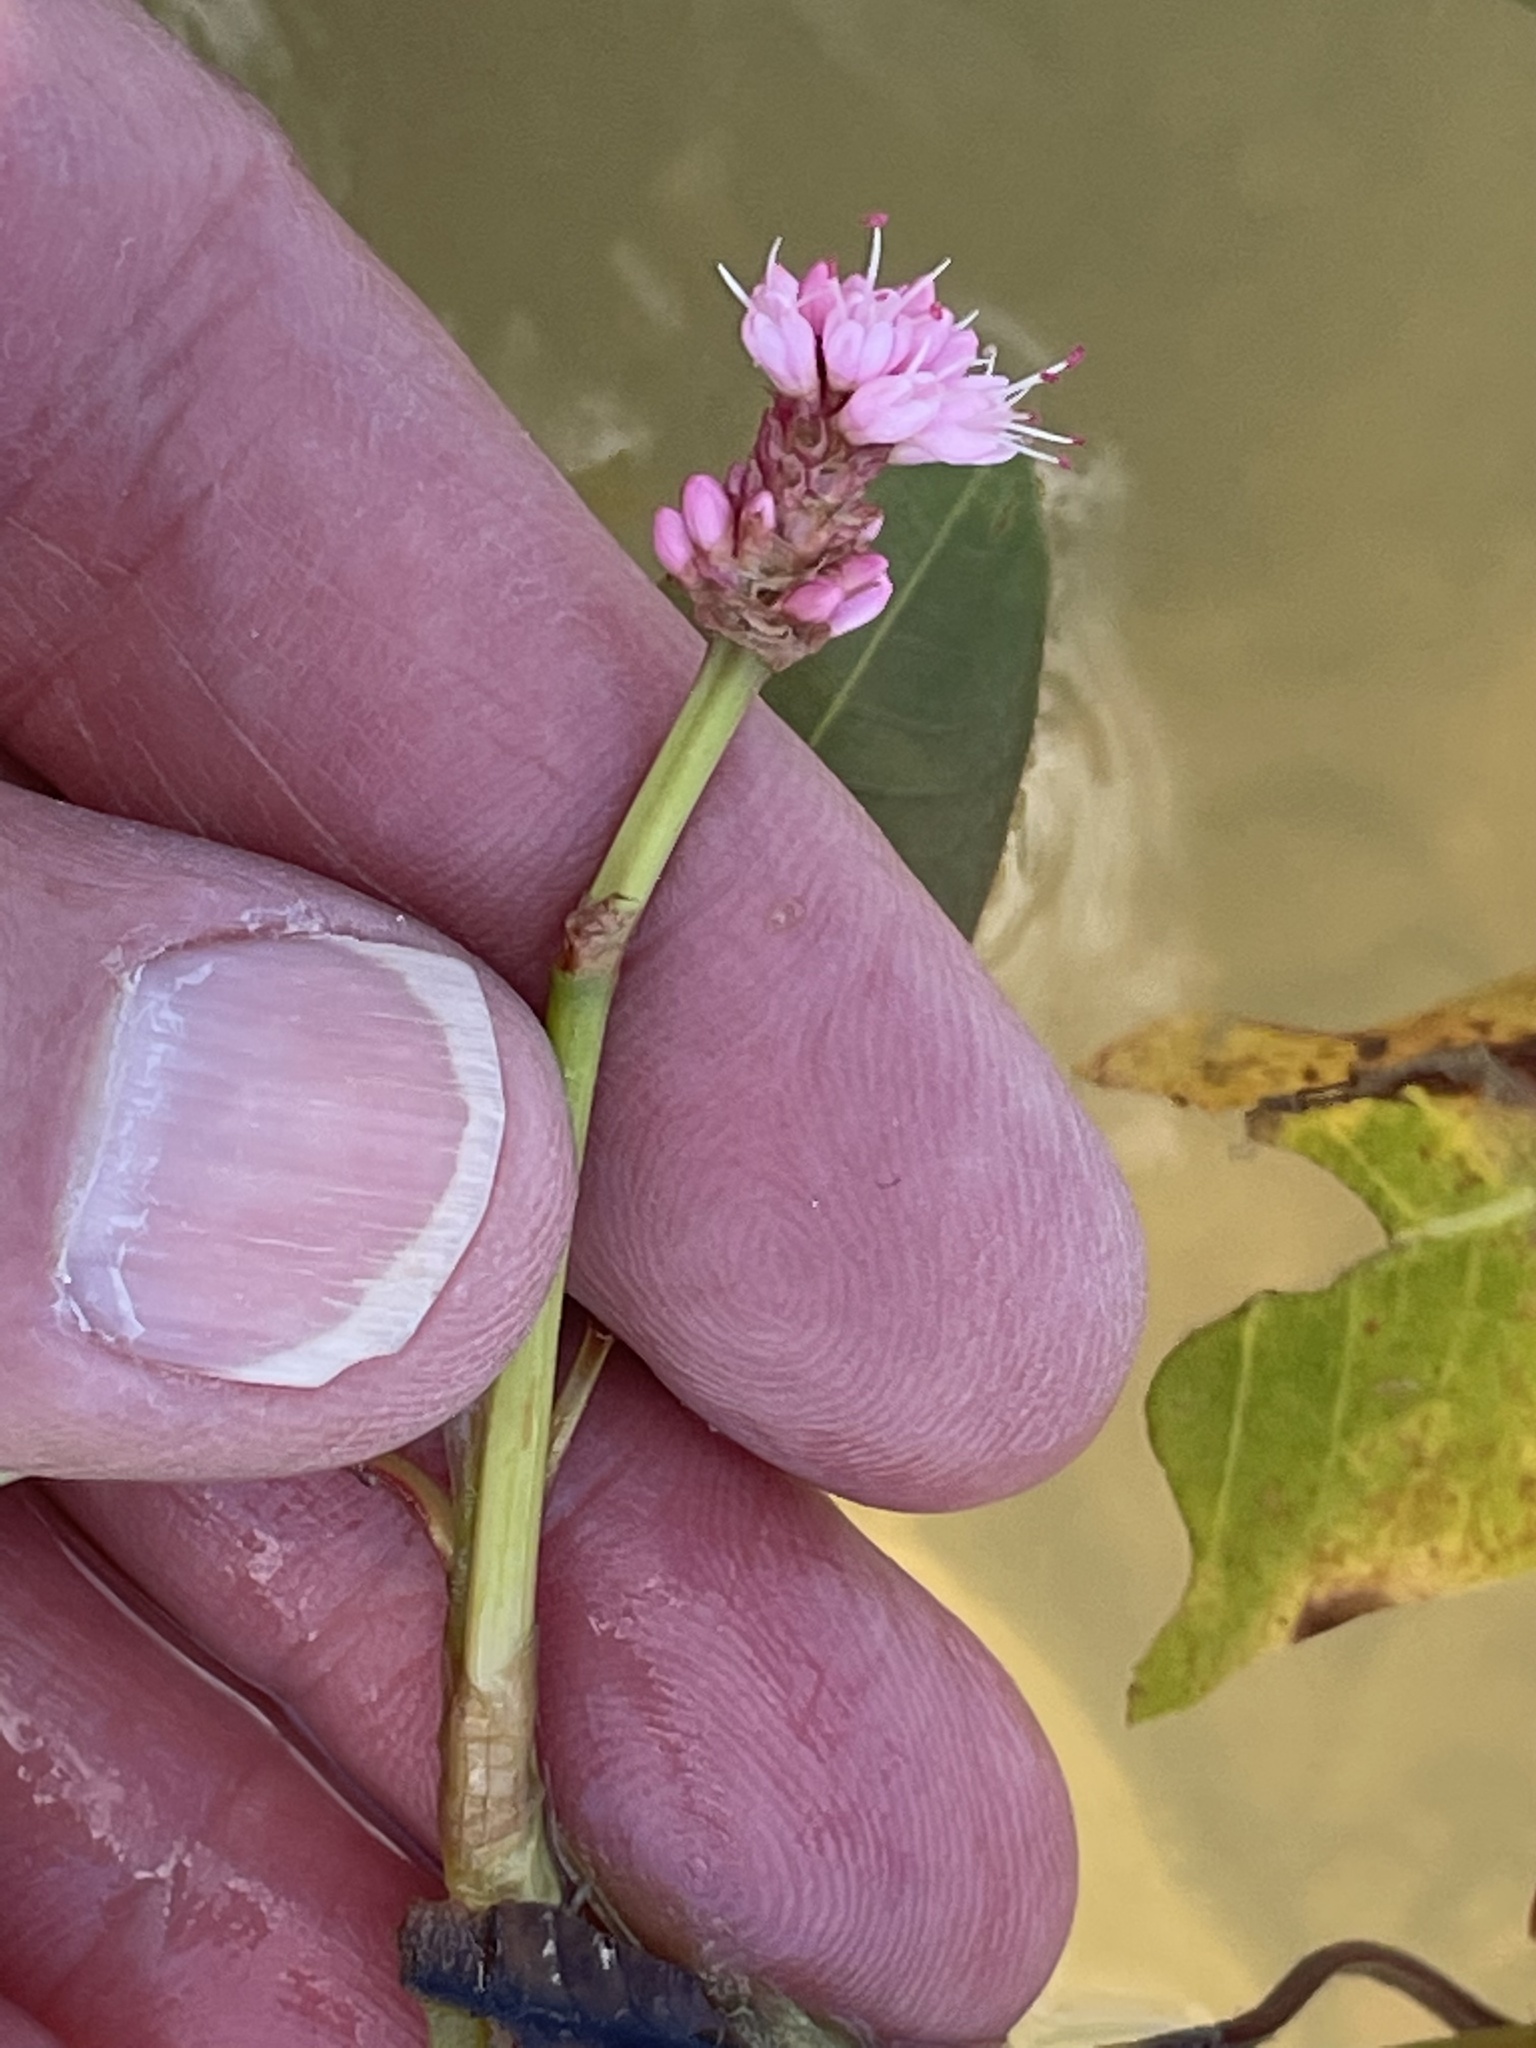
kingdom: Plantae
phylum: Tracheophyta
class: Magnoliopsida
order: Caryophyllales
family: Polygonaceae
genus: Persicaria
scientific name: Persicaria amphibia
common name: Amphibious bistort
